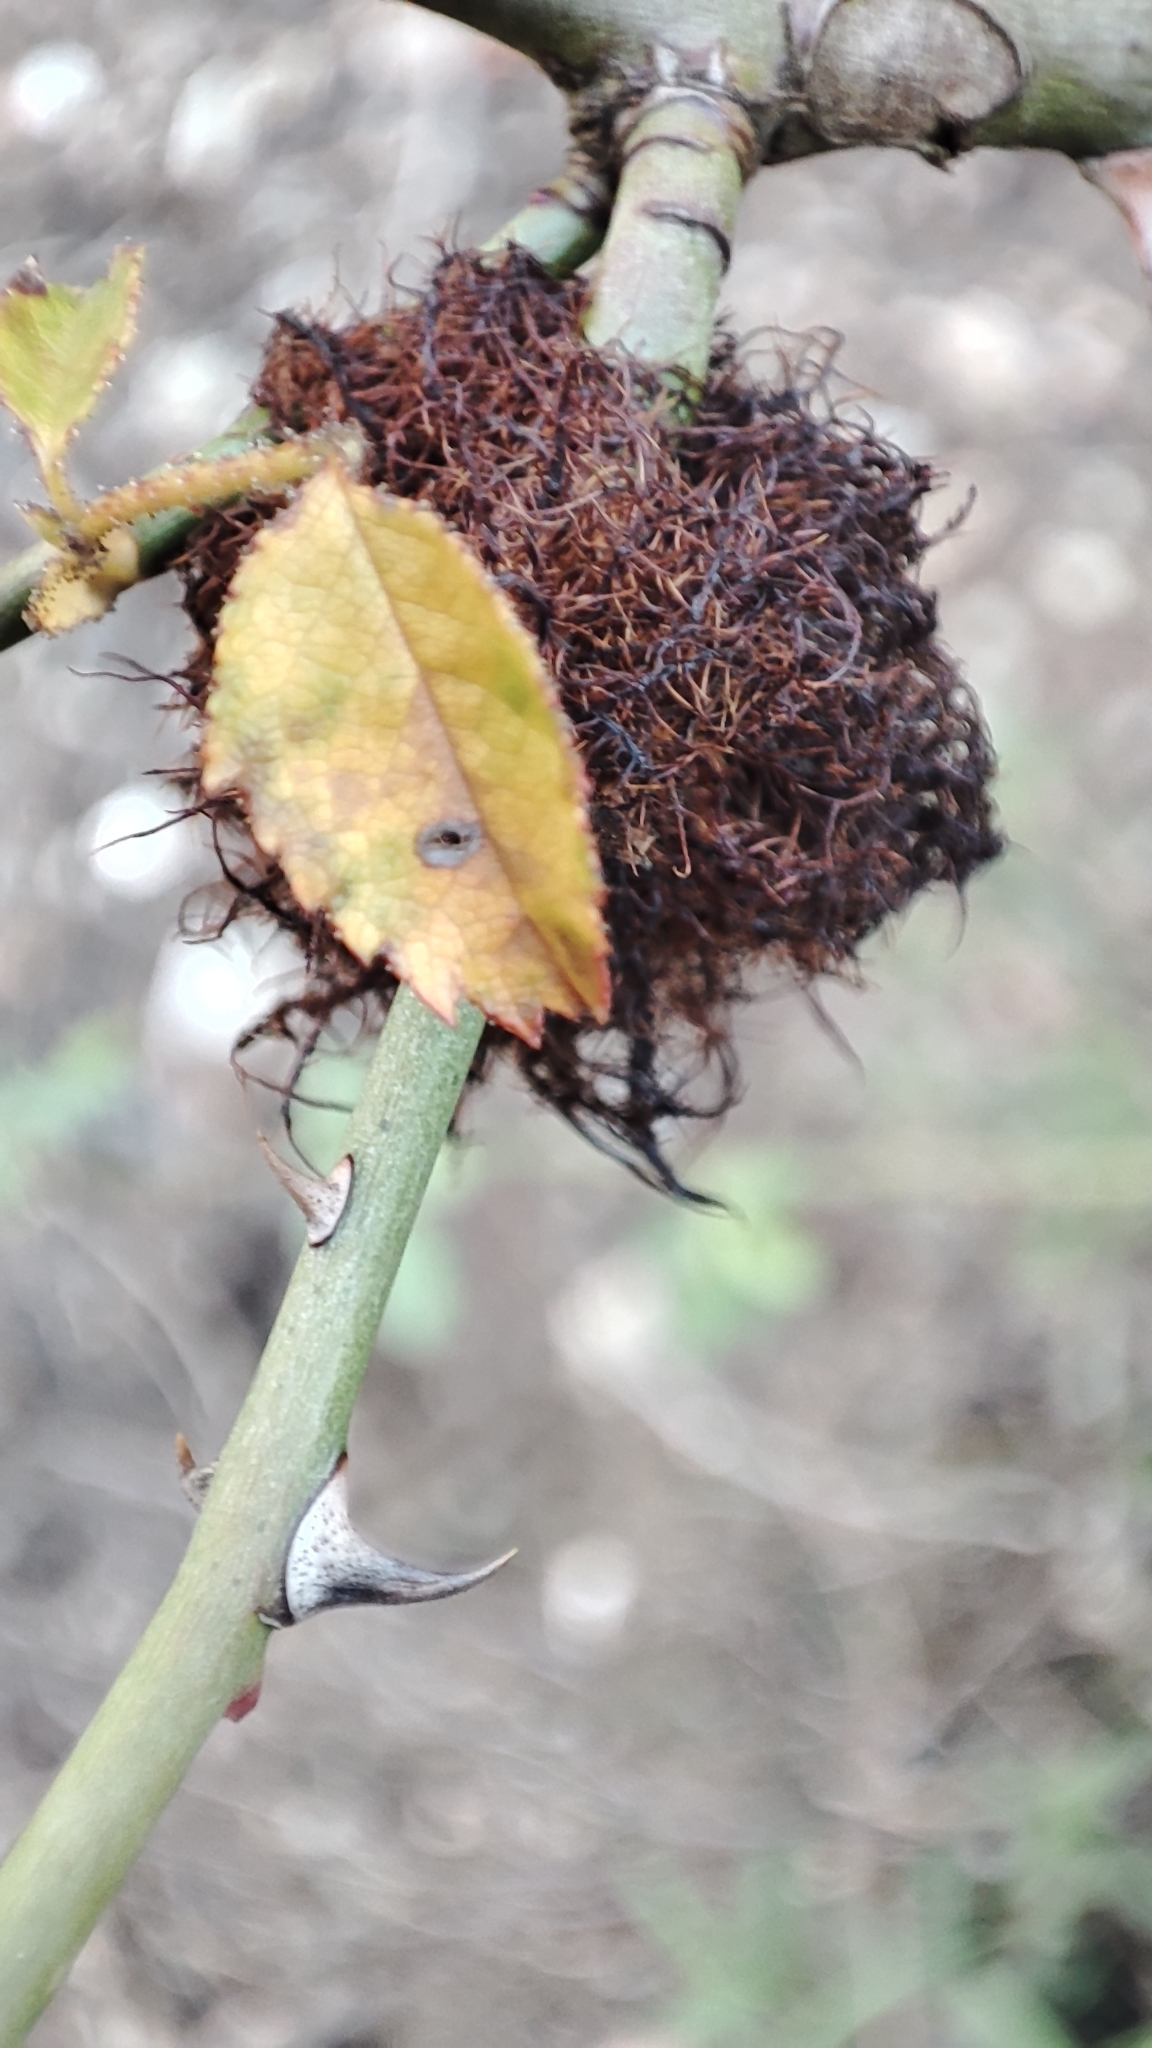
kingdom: Animalia
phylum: Arthropoda
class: Insecta
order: Hymenoptera
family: Cynipidae
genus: Diplolepis
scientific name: Diplolepis rosae
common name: Bedeguar gall
